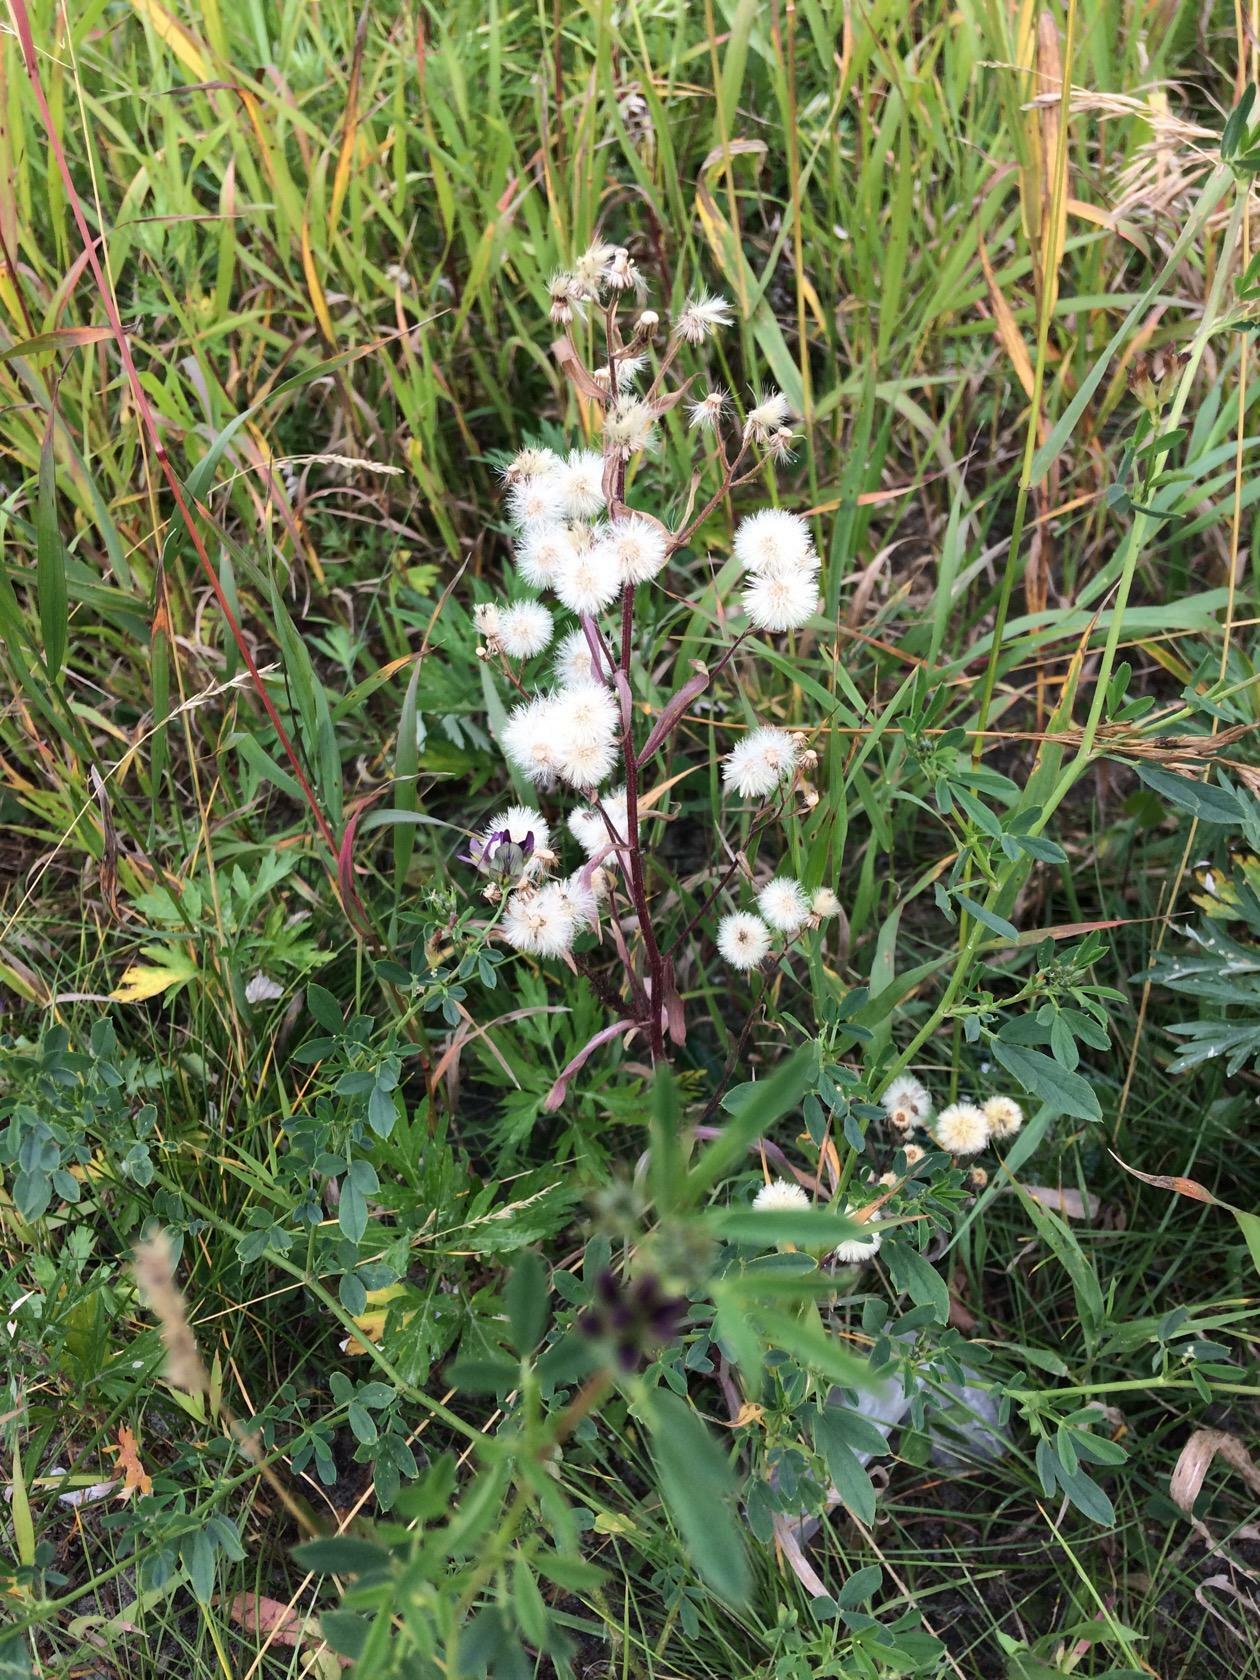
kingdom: Plantae
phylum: Tracheophyta
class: Magnoliopsida
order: Asterales
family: Asteraceae
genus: Erigeron
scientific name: Erigeron acris
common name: Blue fleabane
